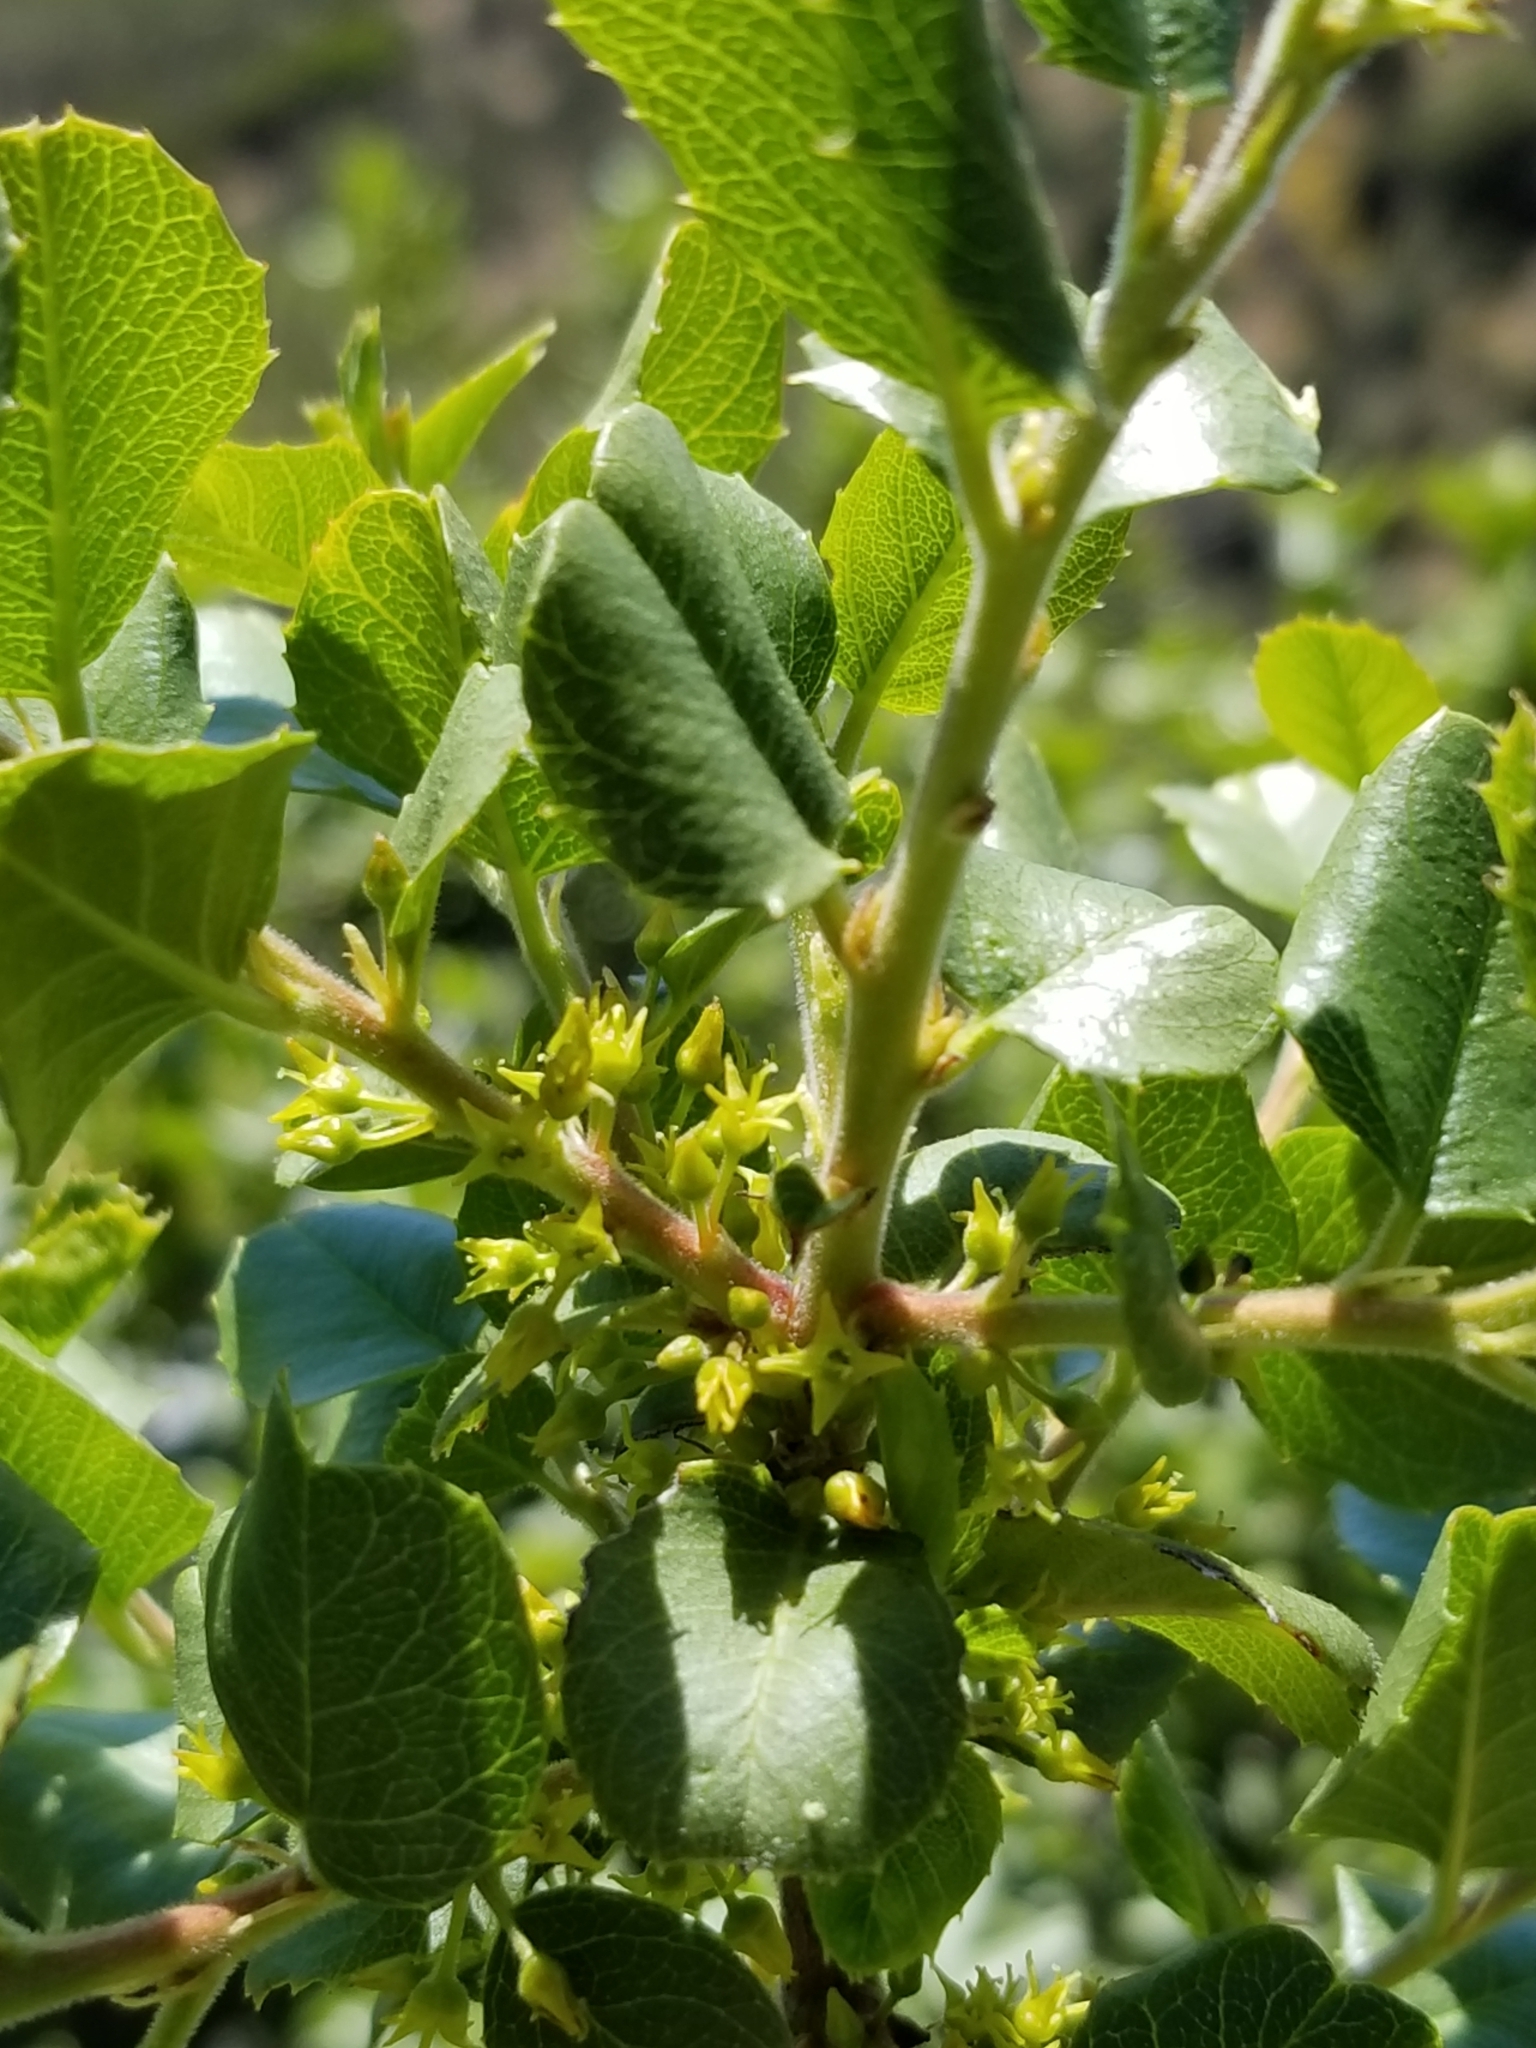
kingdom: Plantae
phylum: Tracheophyta
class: Magnoliopsida
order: Rosales
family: Rhamnaceae
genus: Endotropis
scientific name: Endotropis crocea
